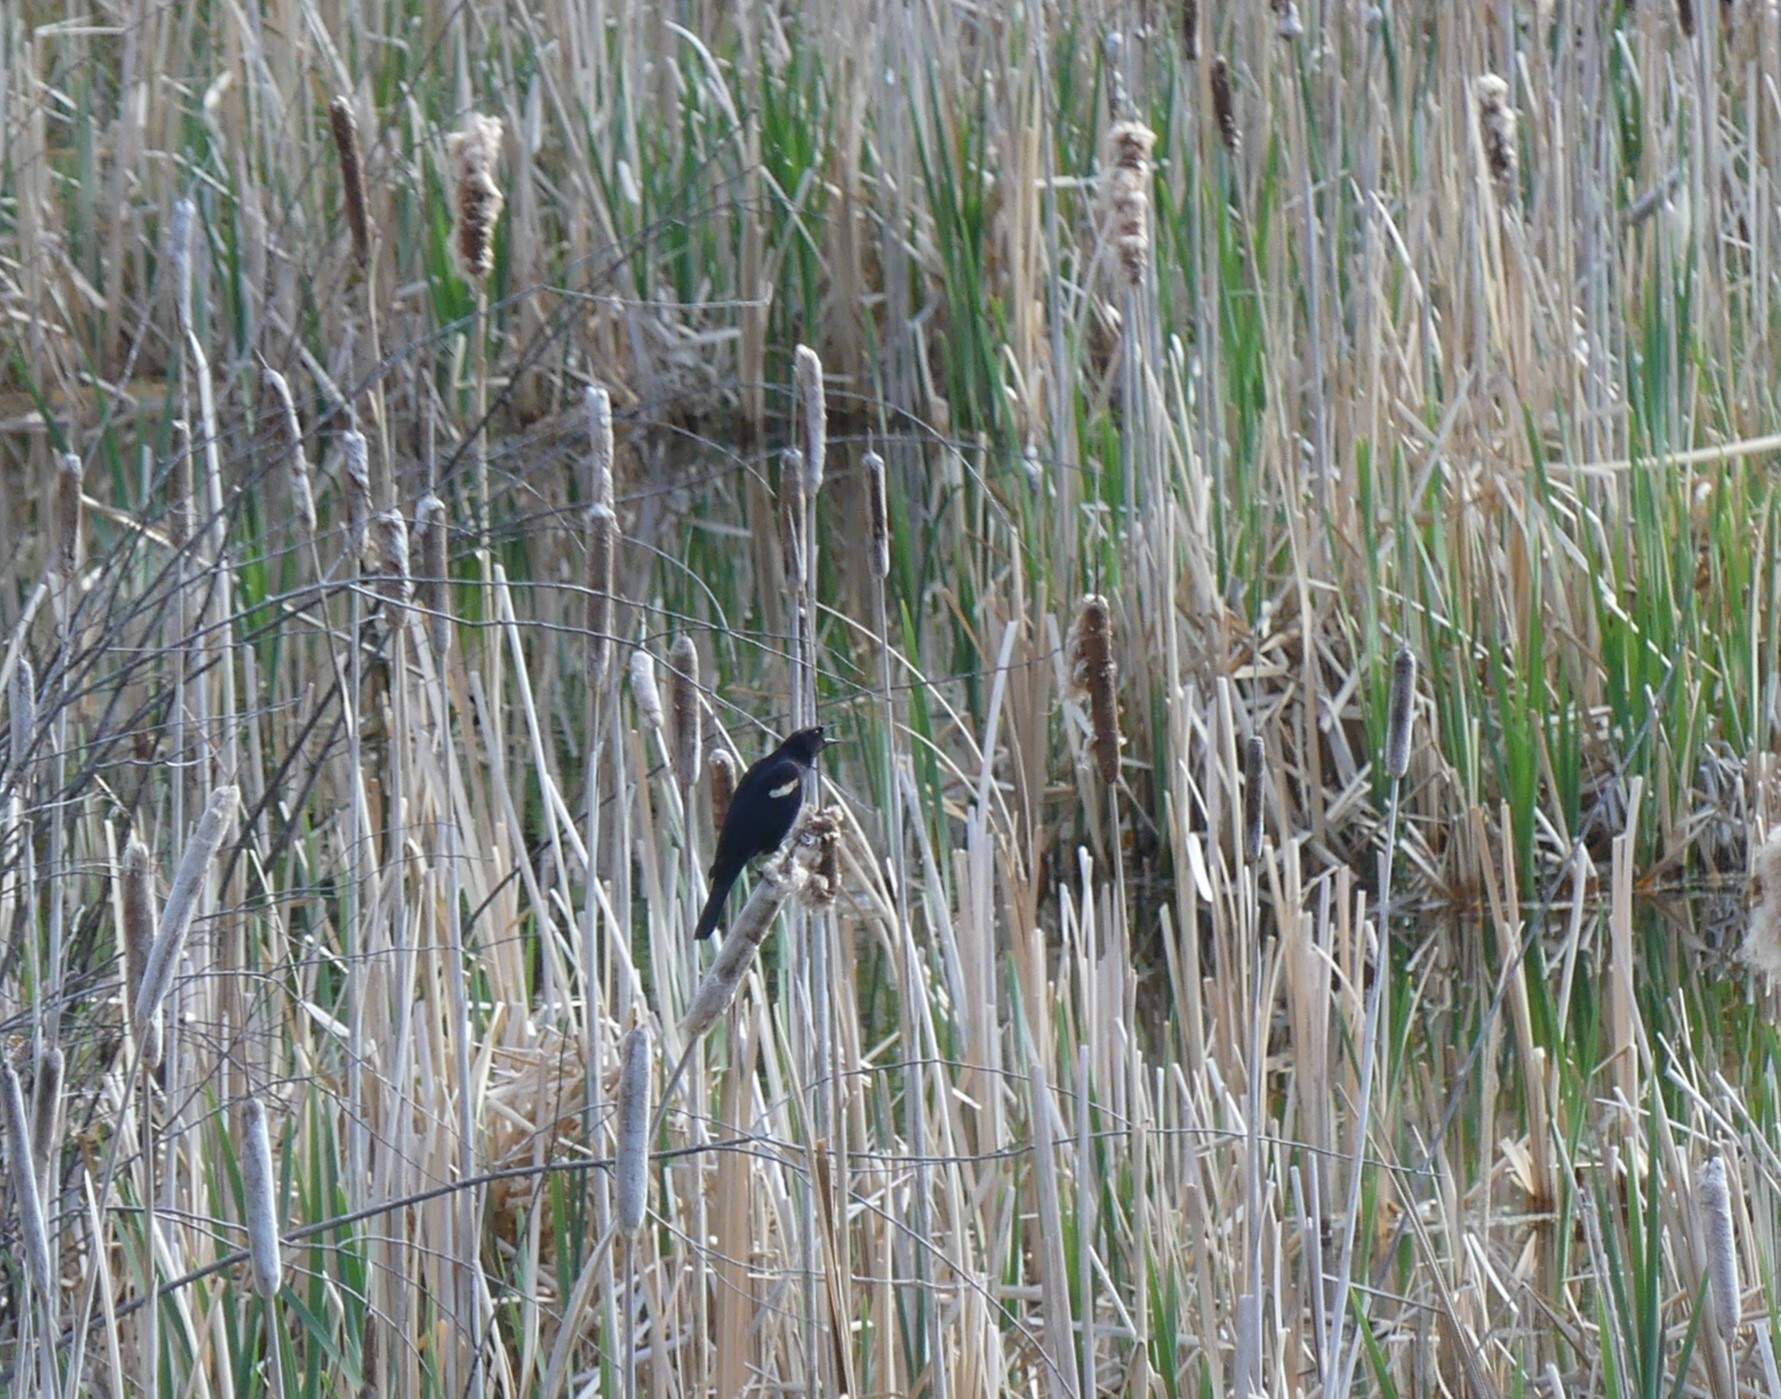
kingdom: Animalia
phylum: Chordata
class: Aves
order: Passeriformes
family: Icteridae
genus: Agelaius
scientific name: Agelaius phoeniceus
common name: Red-winged blackbird
